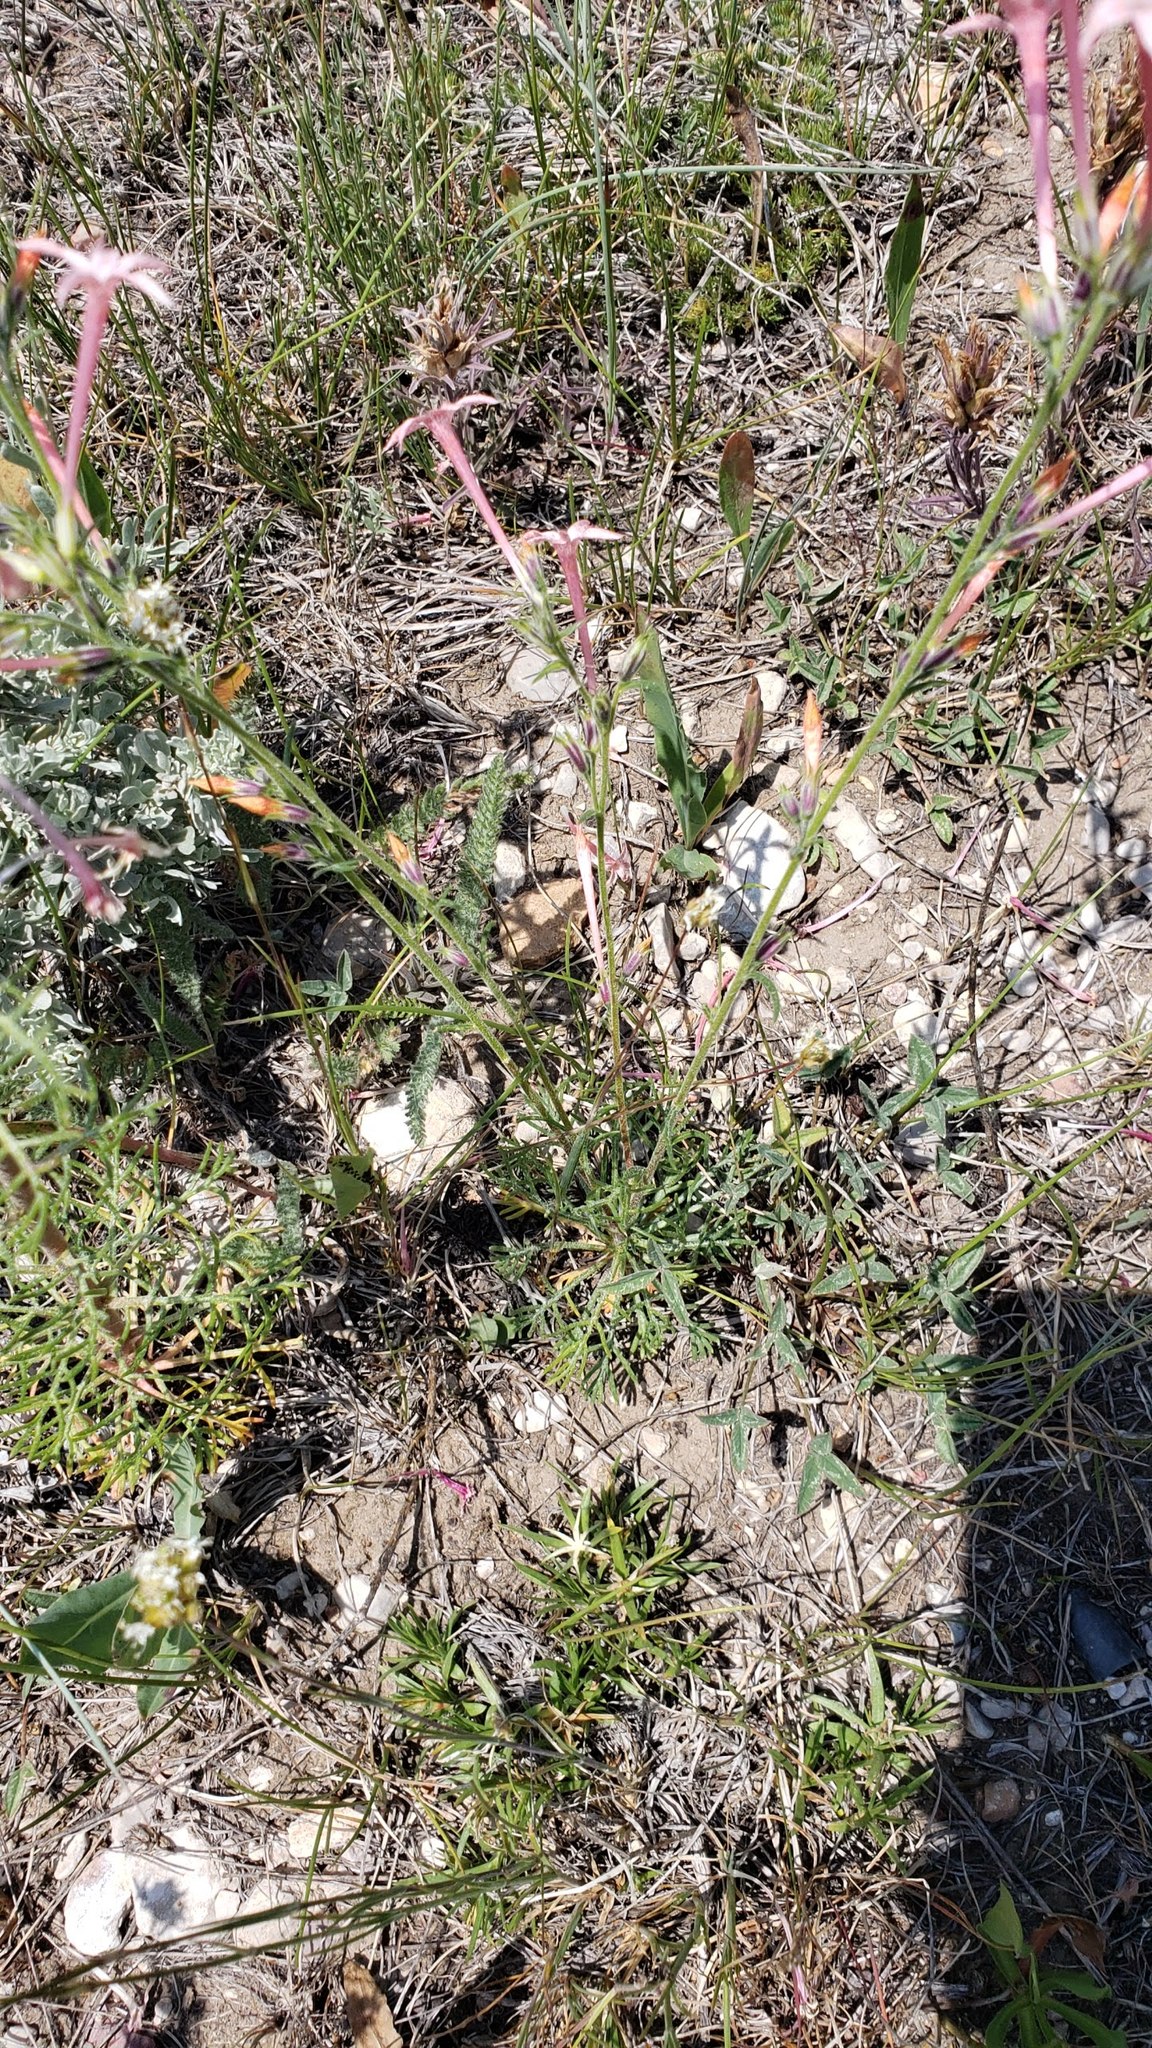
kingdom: Plantae
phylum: Tracheophyta
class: Magnoliopsida
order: Ericales
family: Polemoniaceae
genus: Ipomopsis
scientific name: Ipomopsis tenuituba
